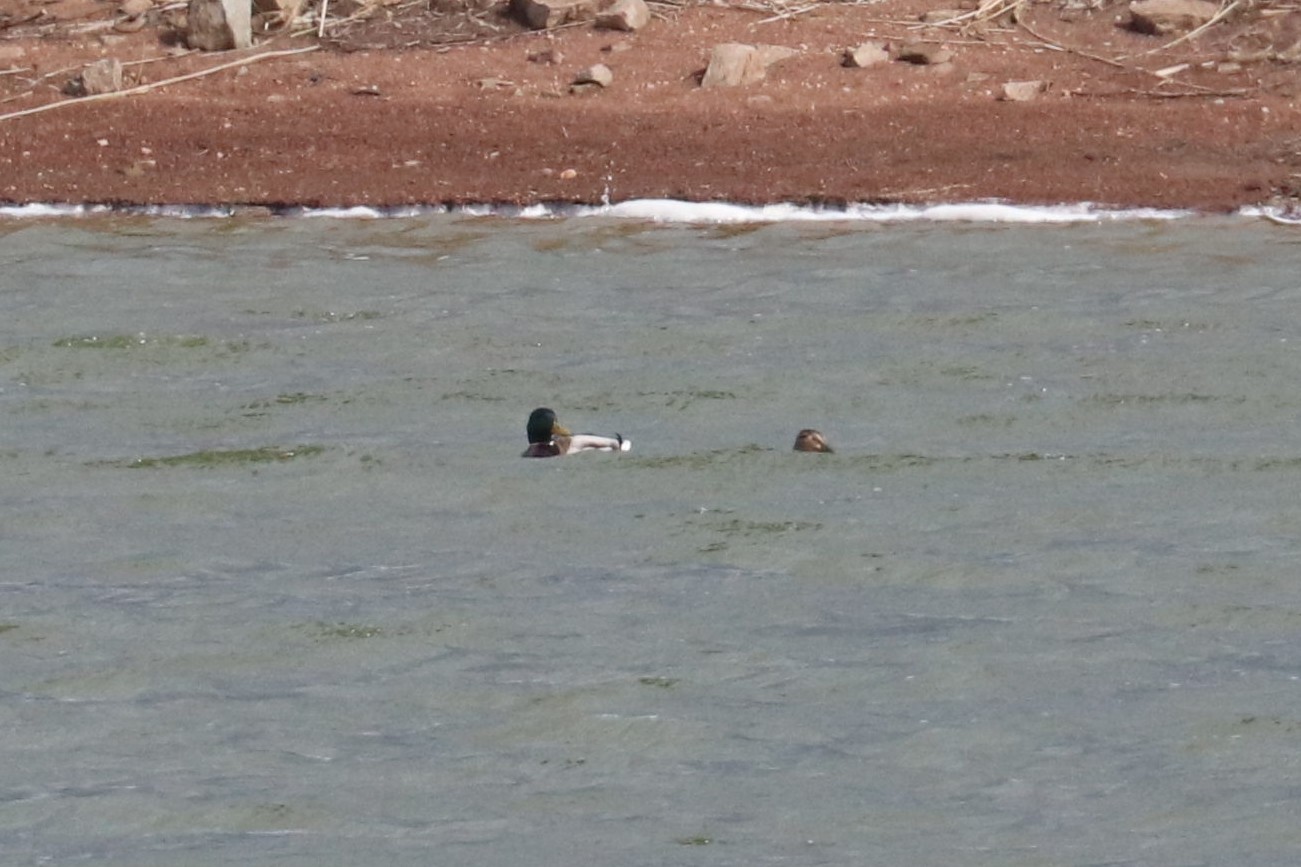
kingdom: Animalia
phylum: Chordata
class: Aves
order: Anseriformes
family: Anatidae
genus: Anas
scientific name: Anas platyrhynchos
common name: Mallard
